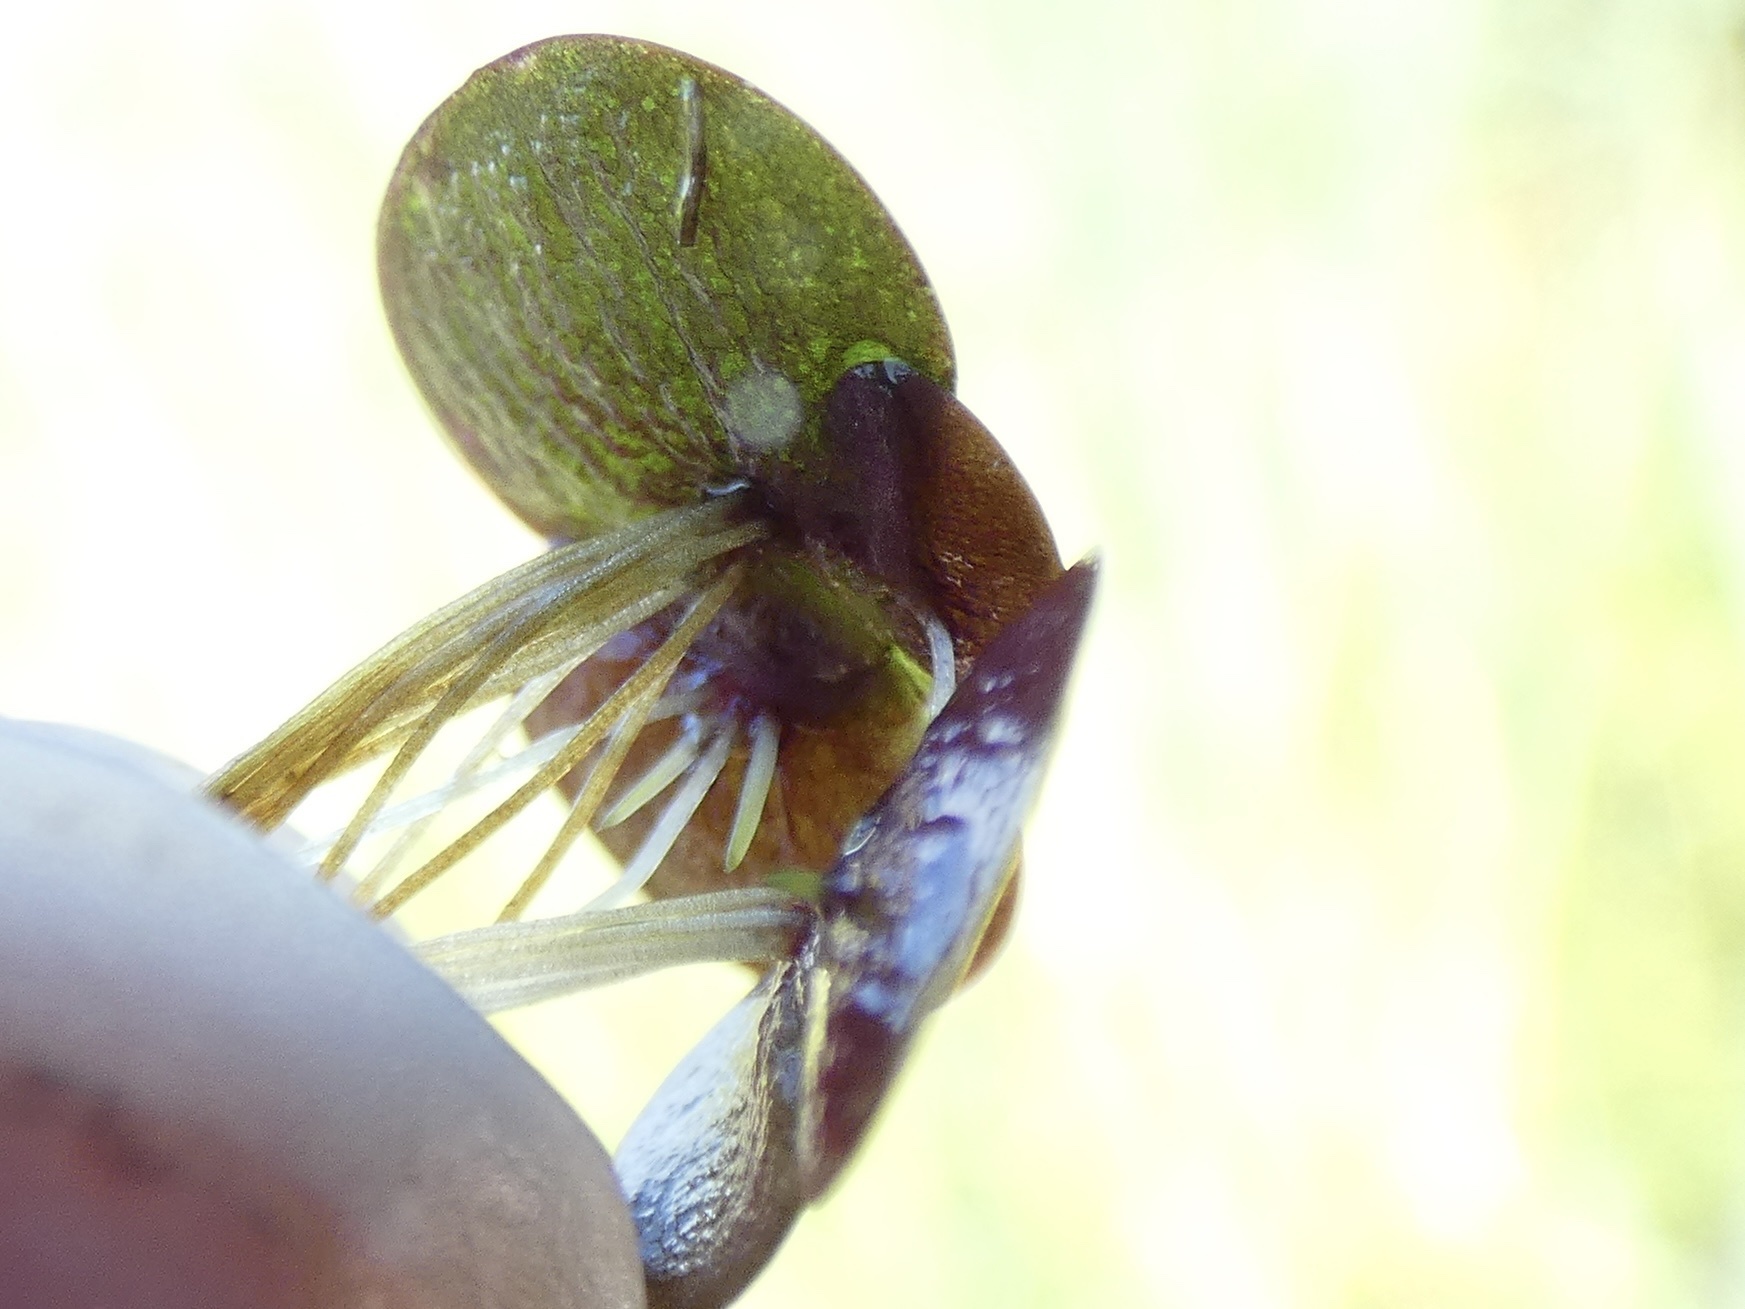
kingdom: Plantae
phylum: Tracheophyta
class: Liliopsida
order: Alismatales
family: Araceae
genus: Spirodela
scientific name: Spirodela polyrhiza
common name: Great duckweed
